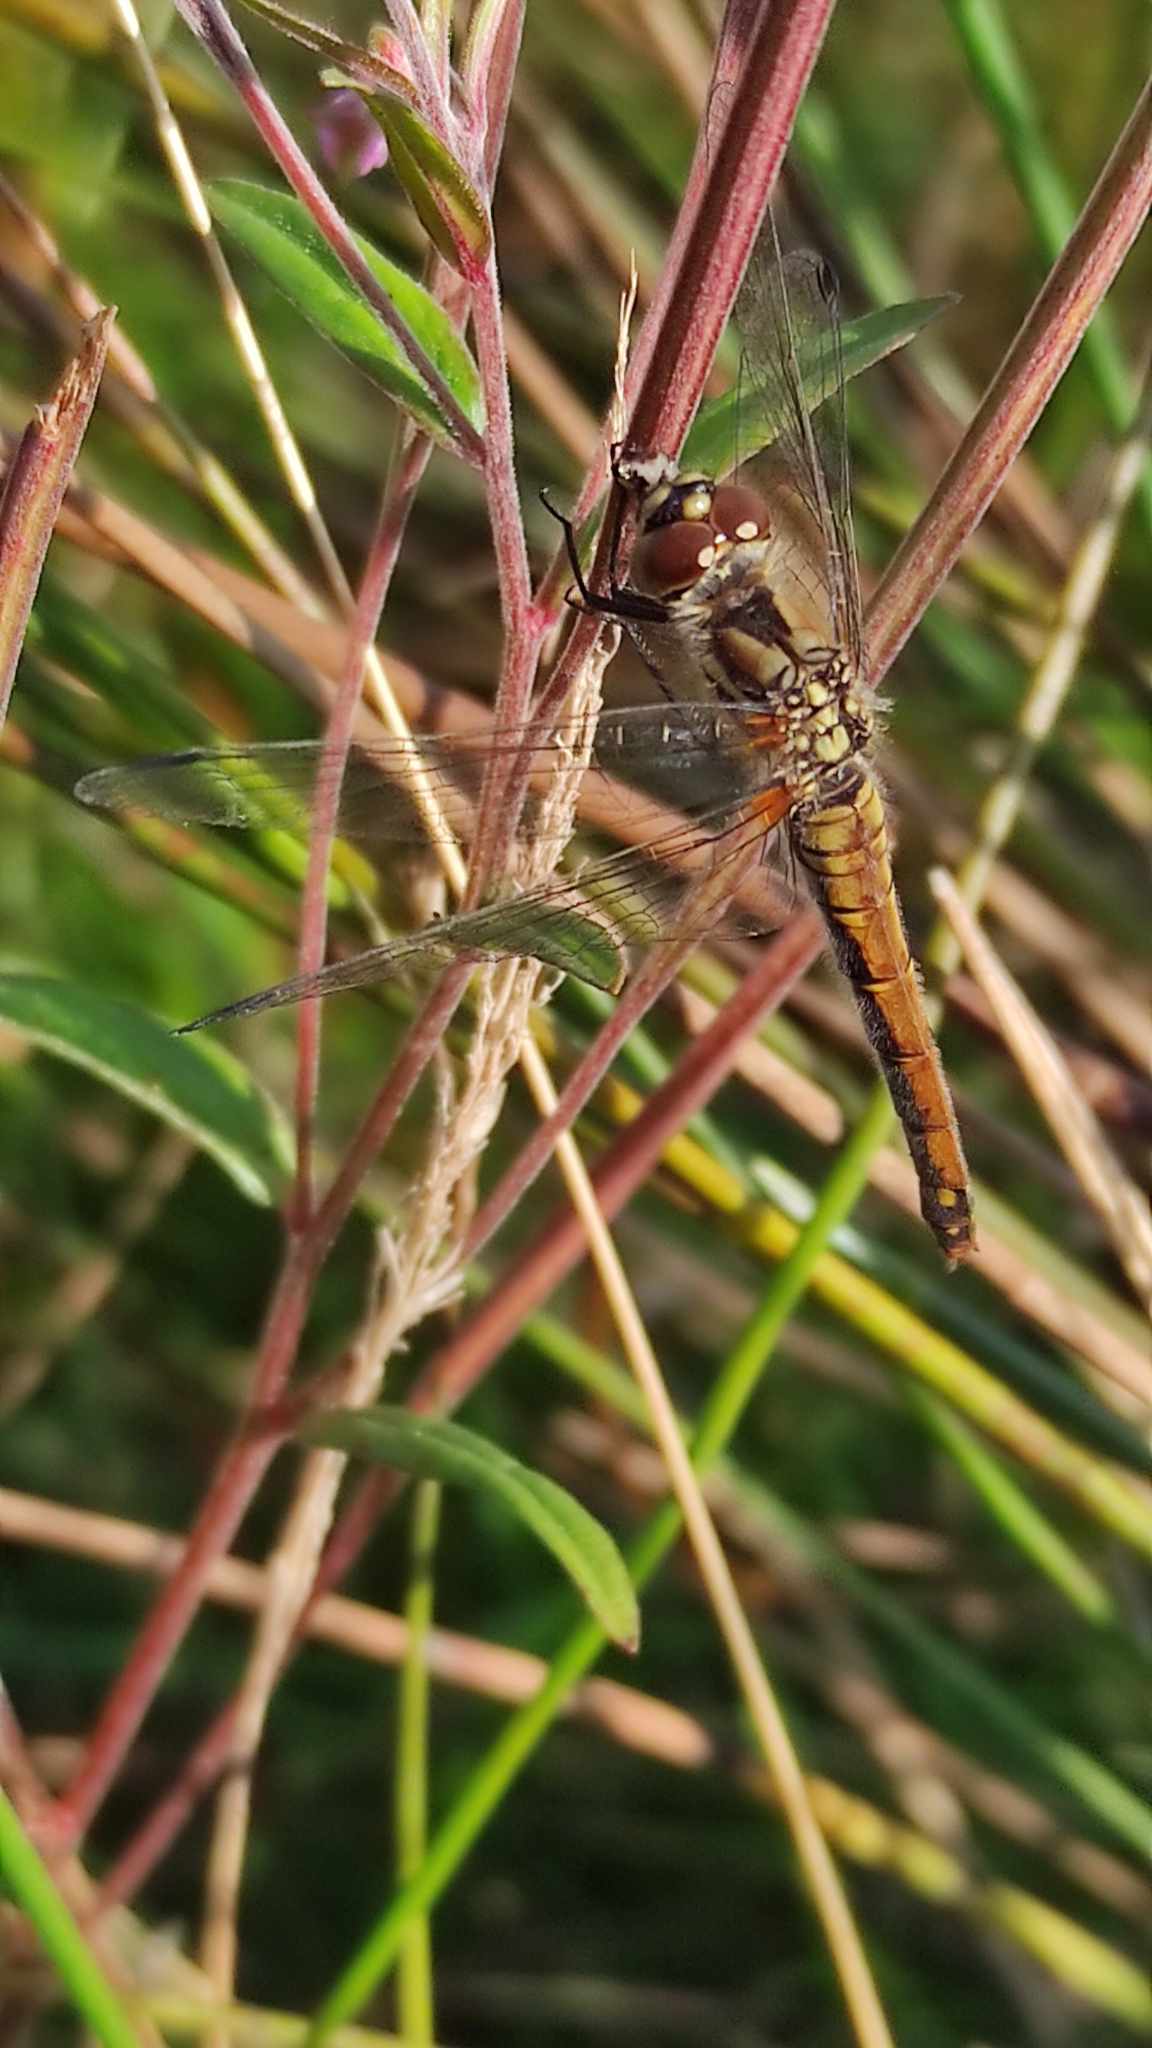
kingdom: Animalia
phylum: Arthropoda
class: Insecta
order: Odonata
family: Libellulidae
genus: Sympetrum
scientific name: Sympetrum danae
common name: Black darter
